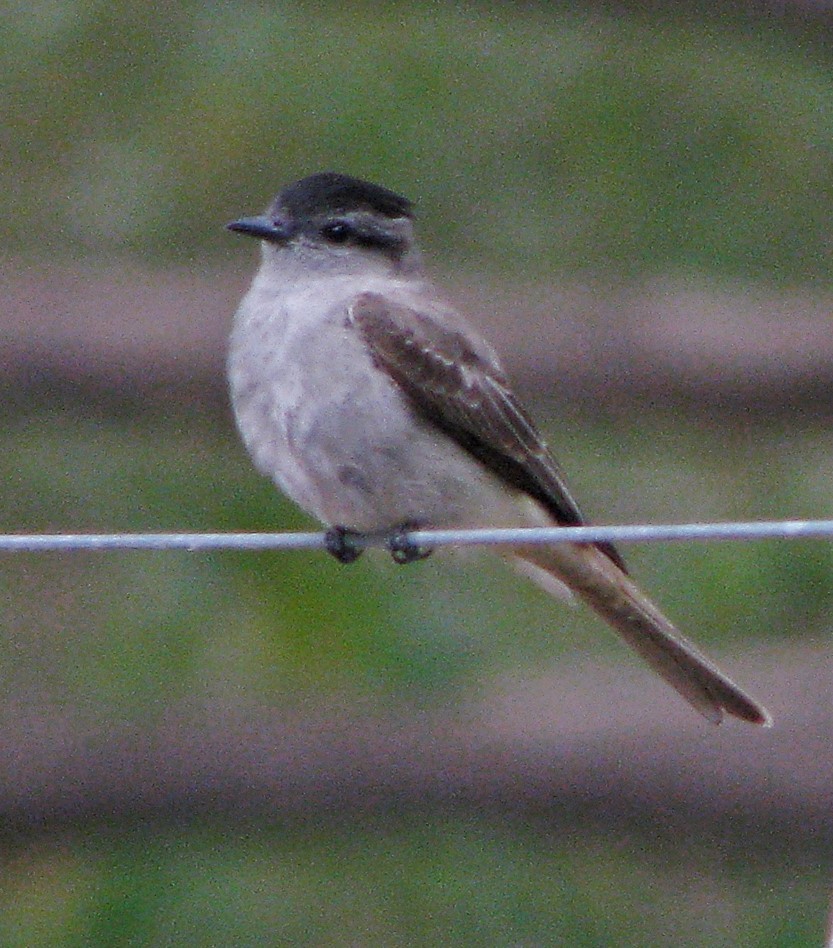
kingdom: Animalia
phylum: Chordata
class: Aves
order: Passeriformes
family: Tyrannidae
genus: Empidonomus
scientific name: Empidonomus aurantioatrocristatus
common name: Crowned slaty flycatcher
